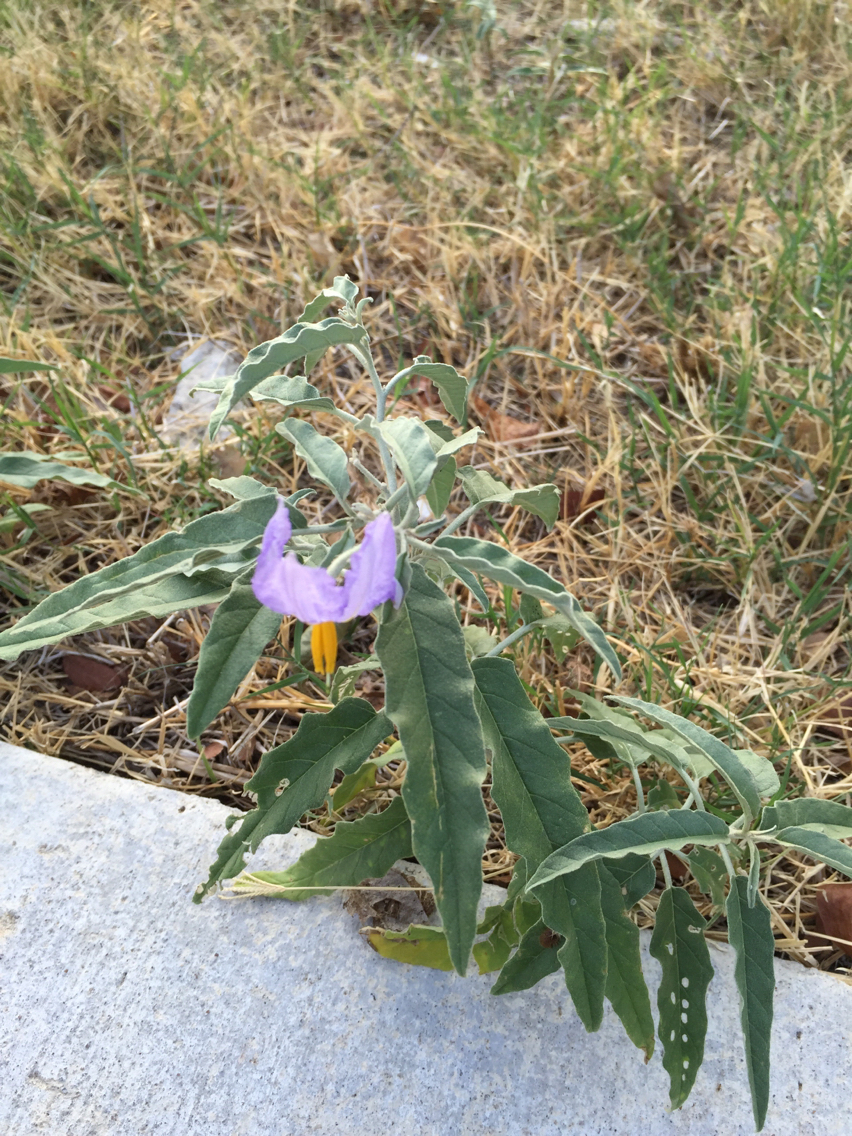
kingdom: Plantae
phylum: Tracheophyta
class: Magnoliopsida
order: Solanales
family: Solanaceae
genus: Solanum
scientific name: Solanum elaeagnifolium
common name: Silverleaf nightshade
